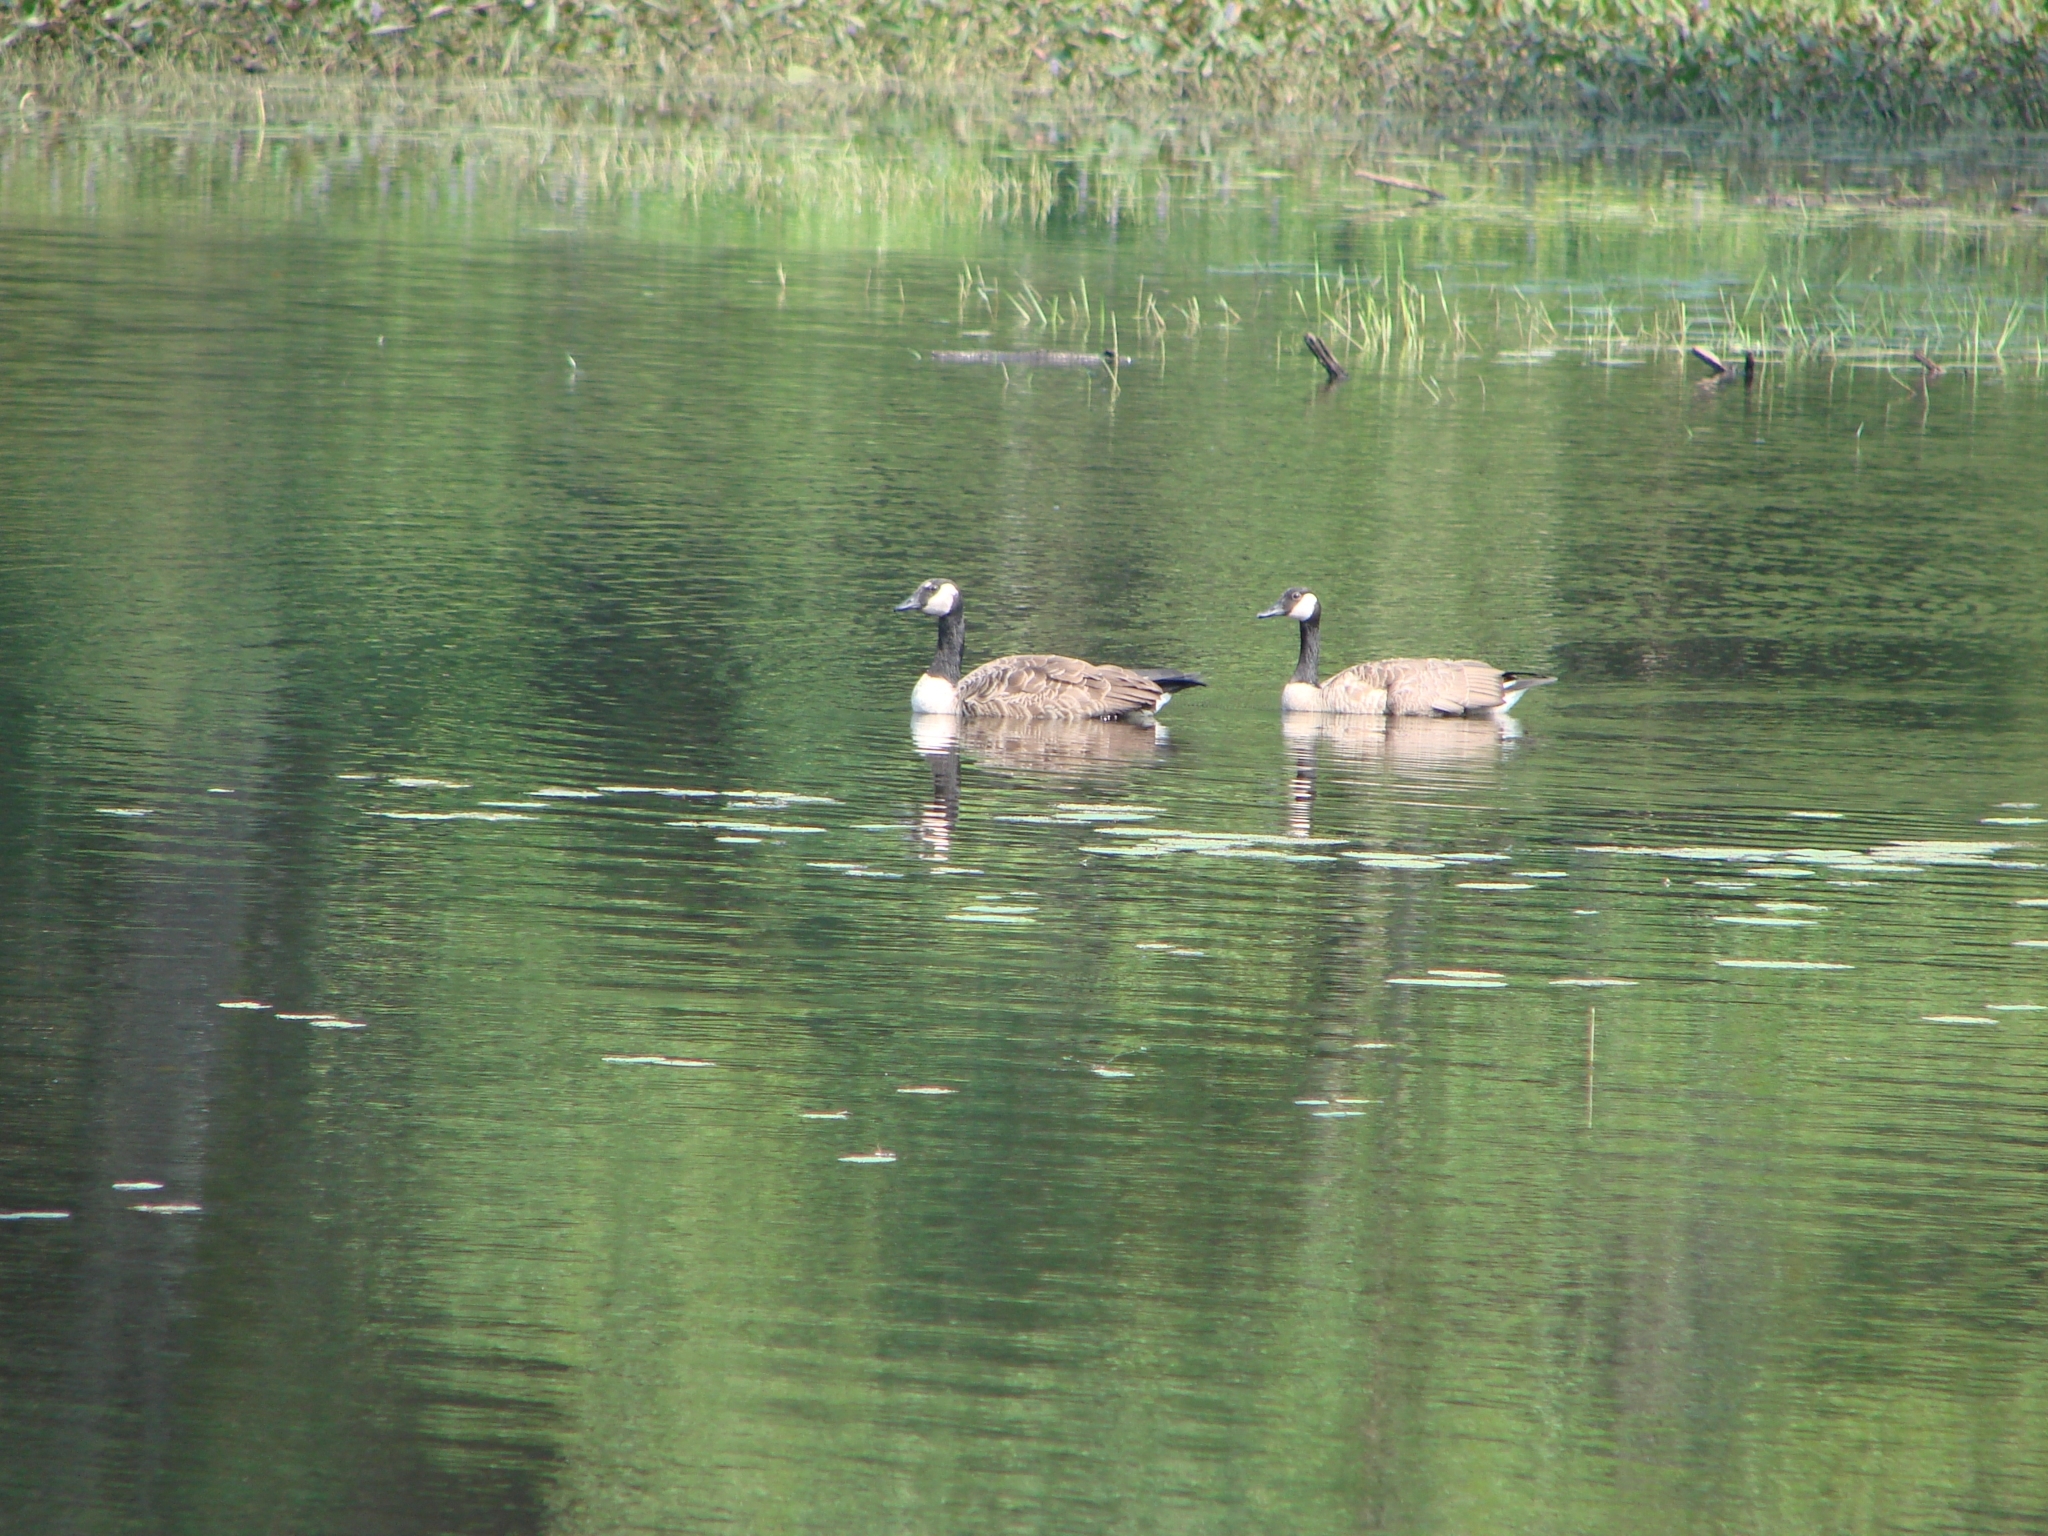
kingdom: Animalia
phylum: Chordata
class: Aves
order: Anseriformes
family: Anatidae
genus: Branta
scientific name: Branta canadensis
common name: Canada goose
